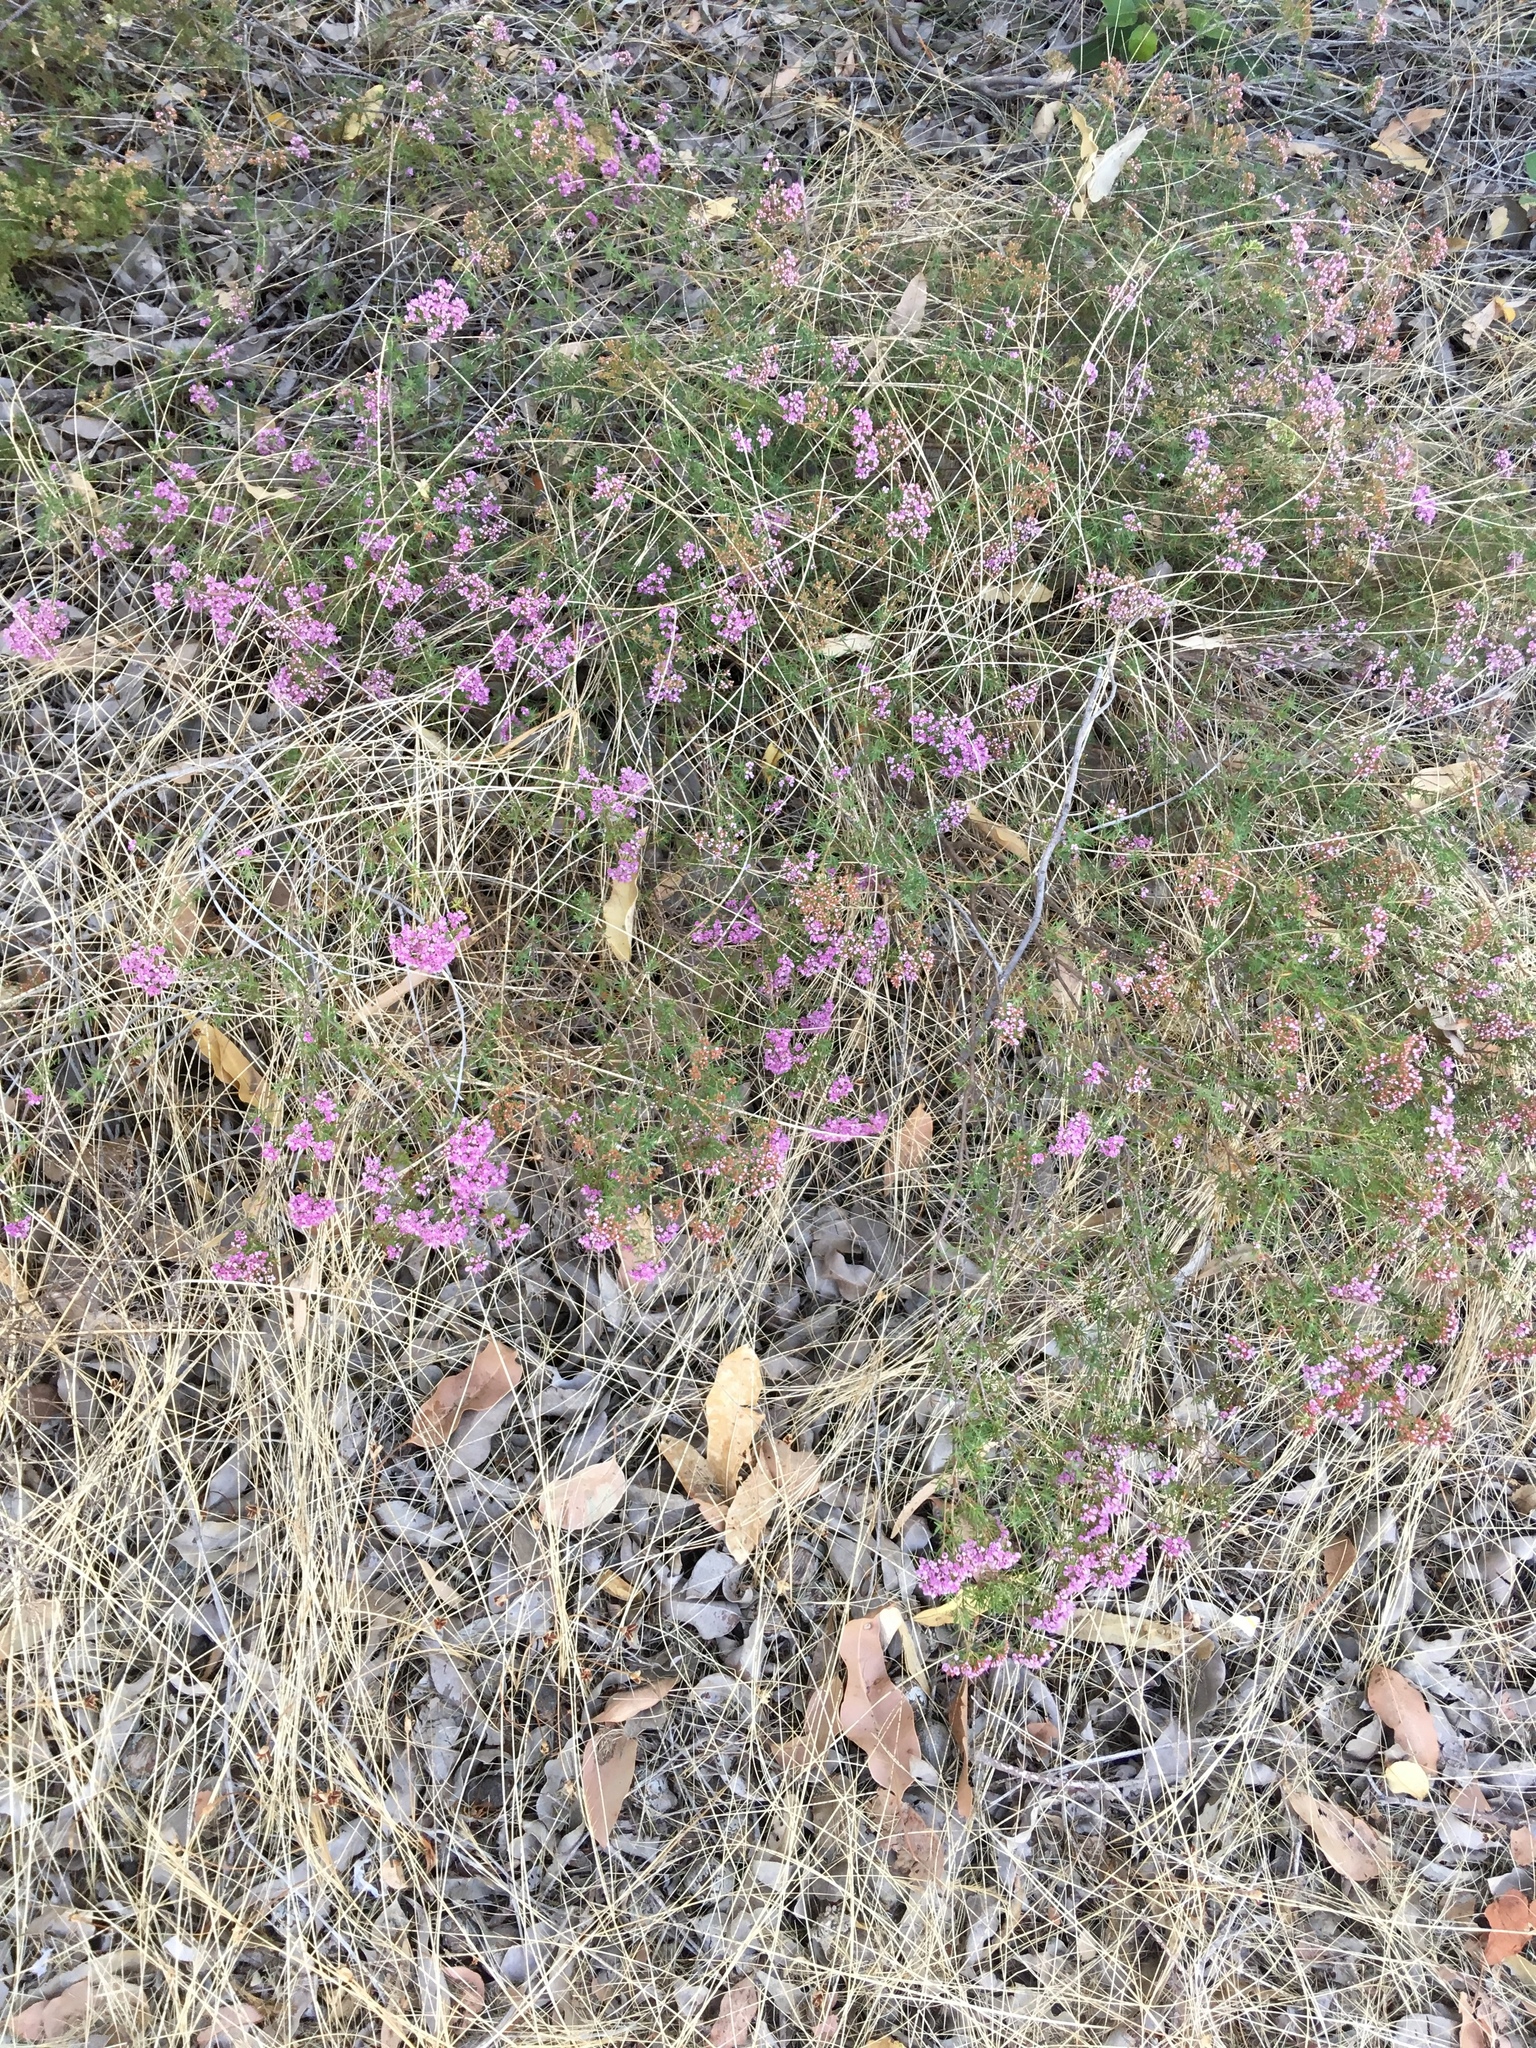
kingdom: Plantae
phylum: Tracheophyta
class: Magnoliopsida
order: Myrtales
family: Myrtaceae
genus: Verticordia
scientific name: Verticordia densiflora
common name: Compact feather-flower
